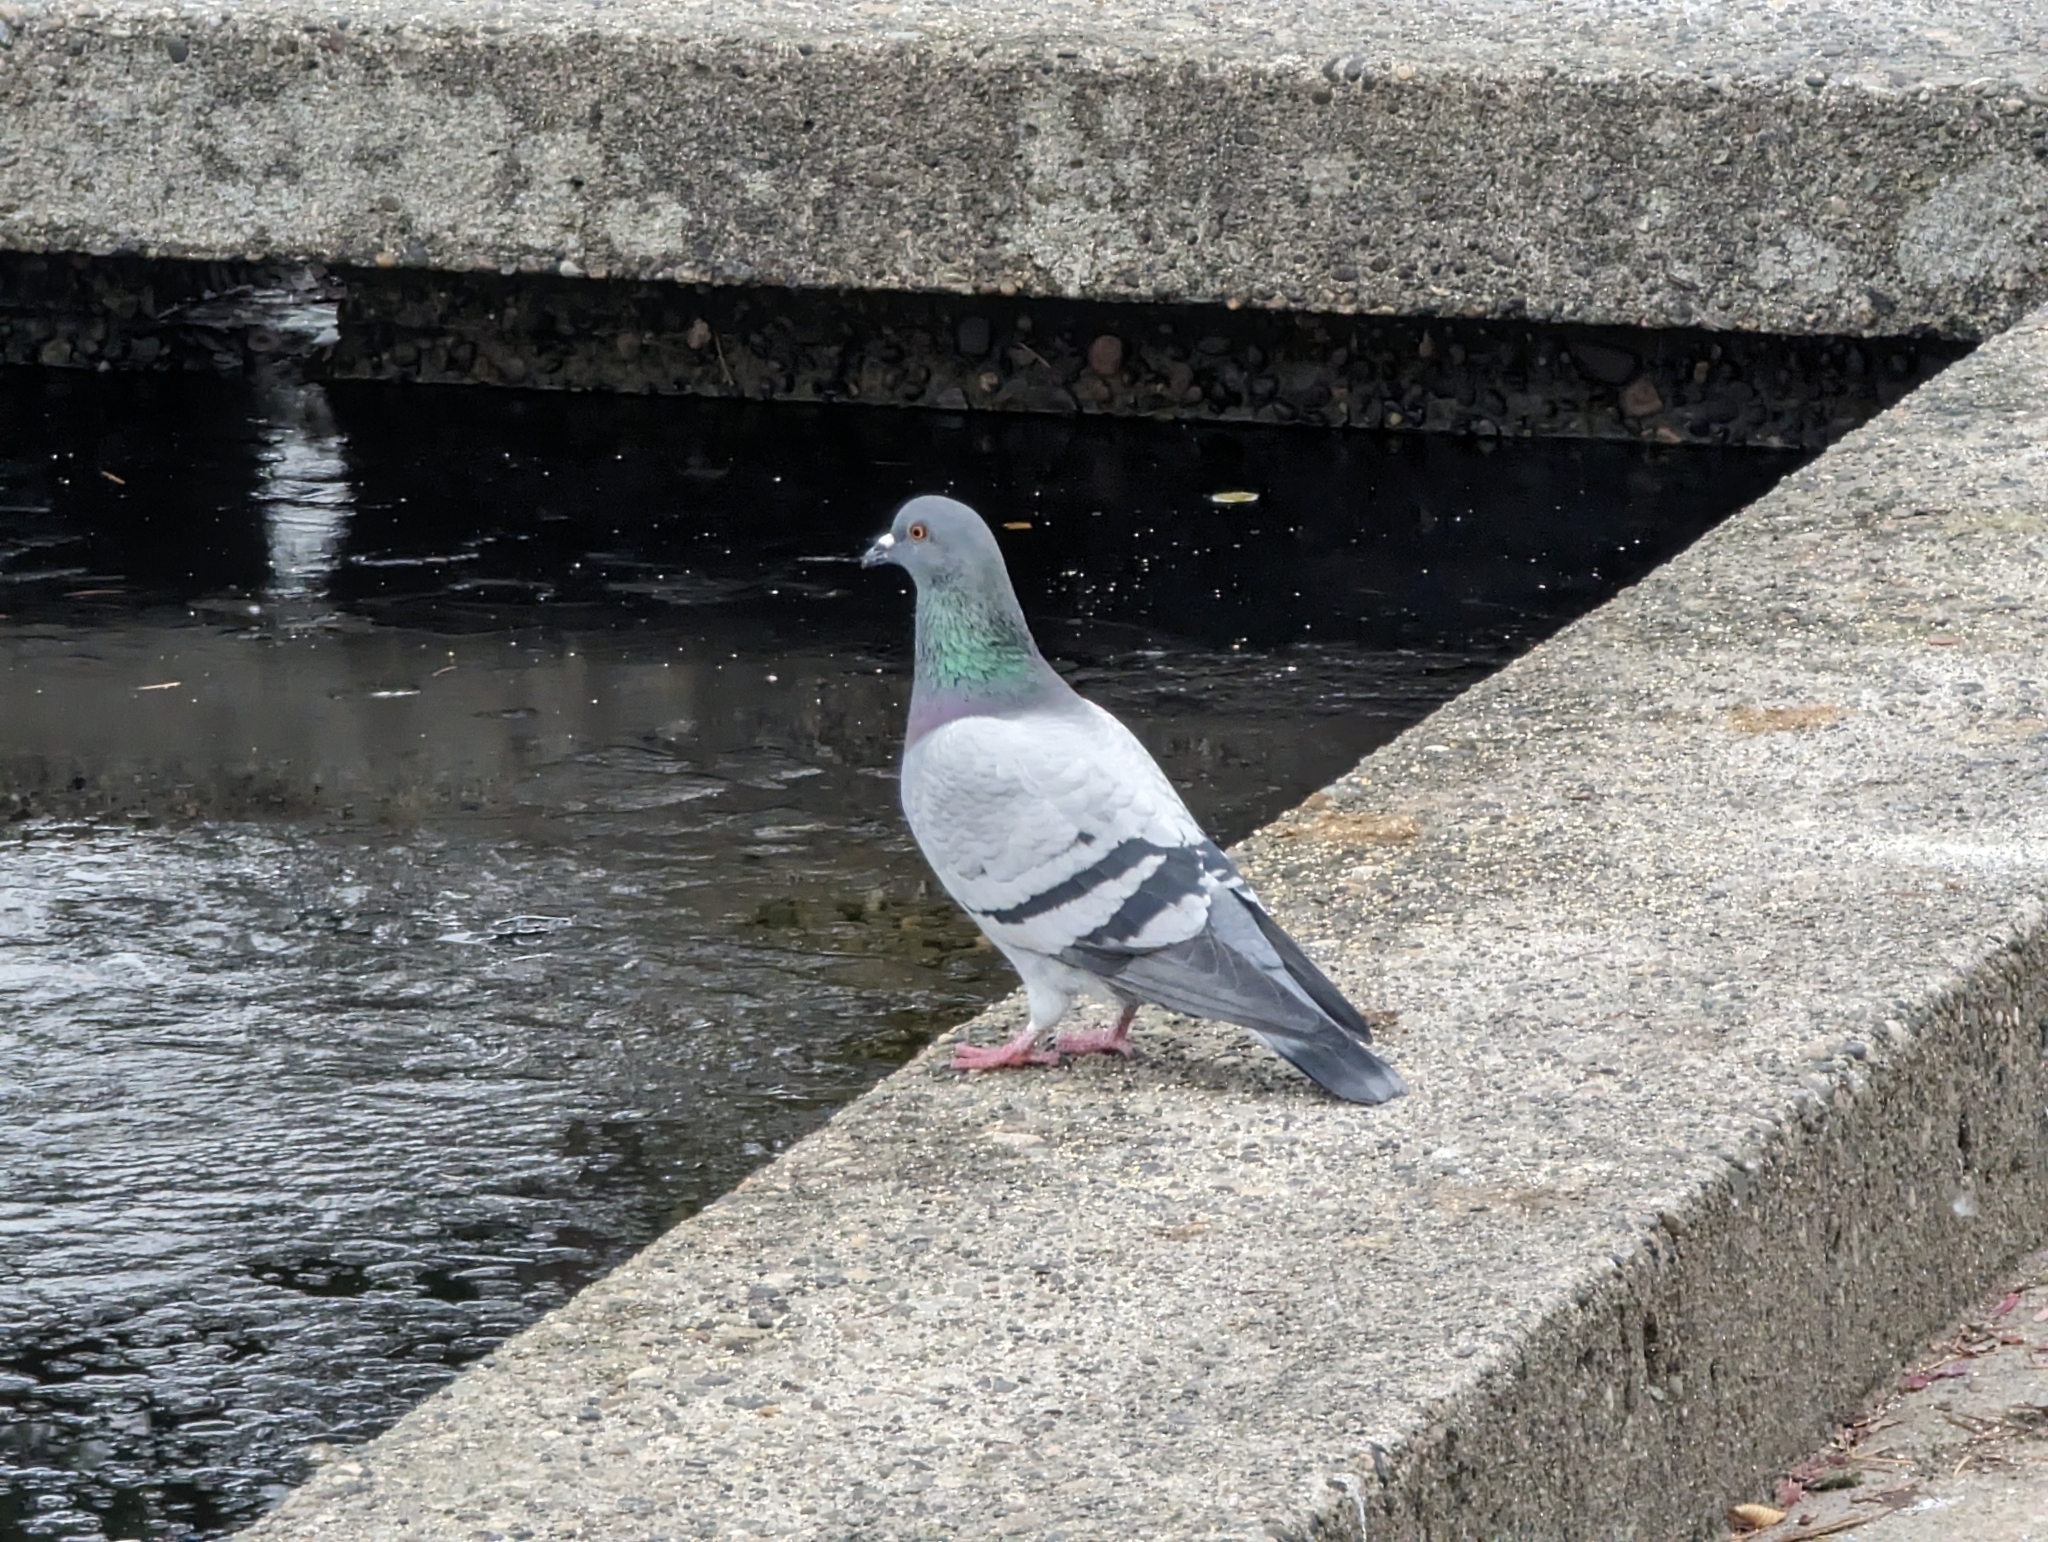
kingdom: Animalia
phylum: Chordata
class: Aves
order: Columbiformes
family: Columbidae
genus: Columba
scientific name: Columba livia
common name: Rock pigeon
